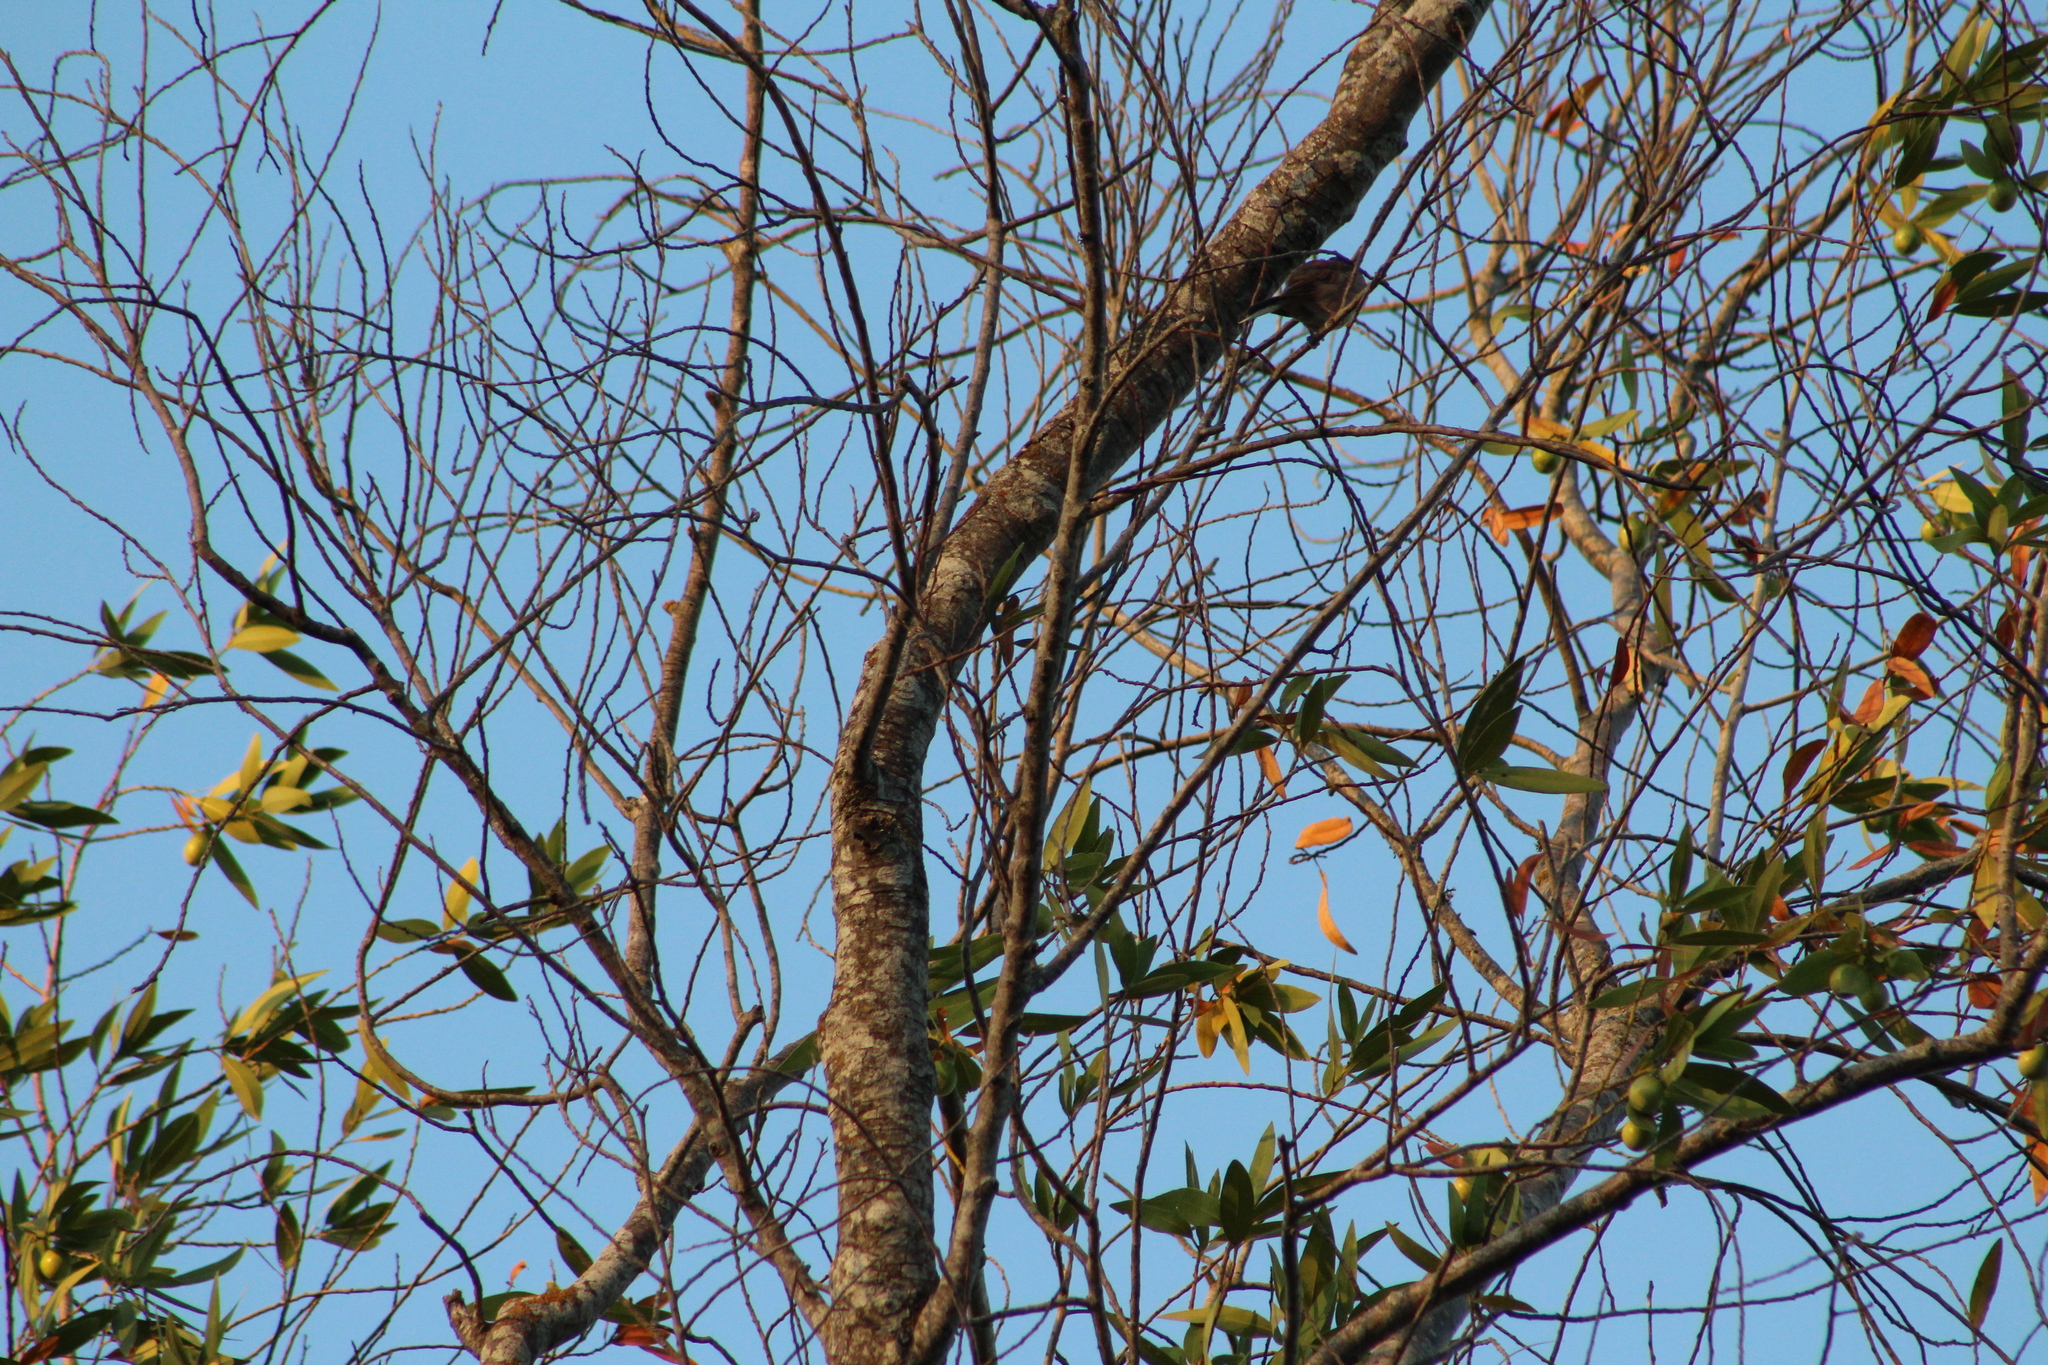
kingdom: Animalia
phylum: Chordata
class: Aves
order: Passeriformes
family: Passerellidae
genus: Junco
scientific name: Junco hyemalis
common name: Dark-eyed junco
